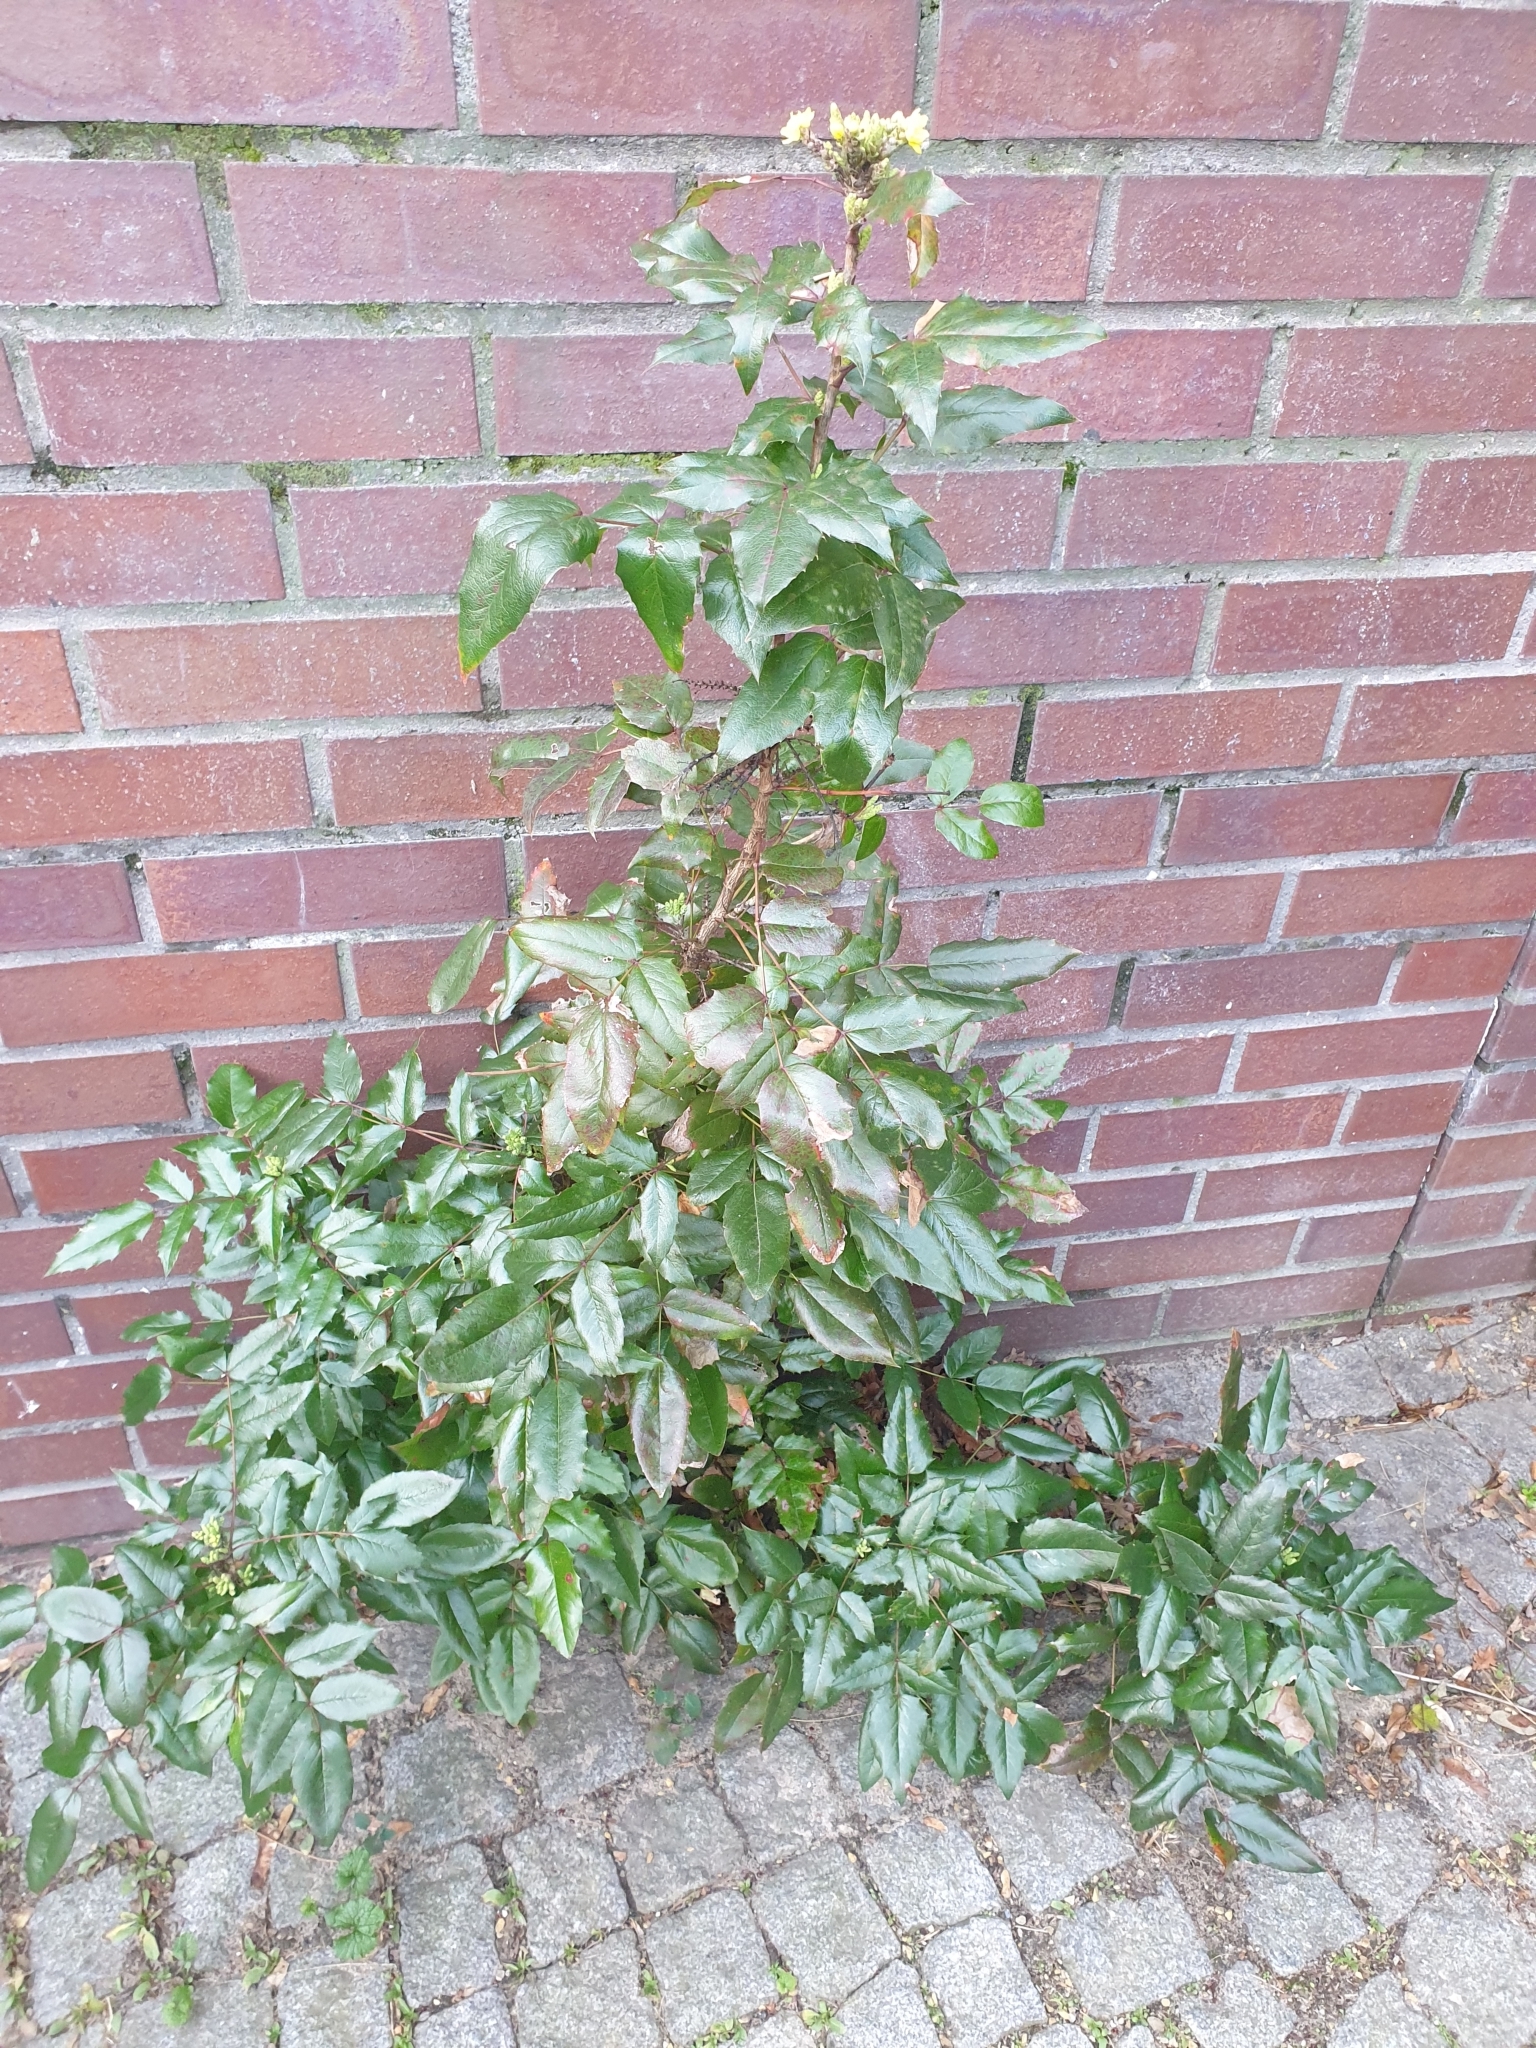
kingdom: Plantae
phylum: Tracheophyta
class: Magnoliopsida
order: Ranunculales
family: Berberidaceae
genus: Mahonia
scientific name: Mahonia aquifolium
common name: Oregon-grape
